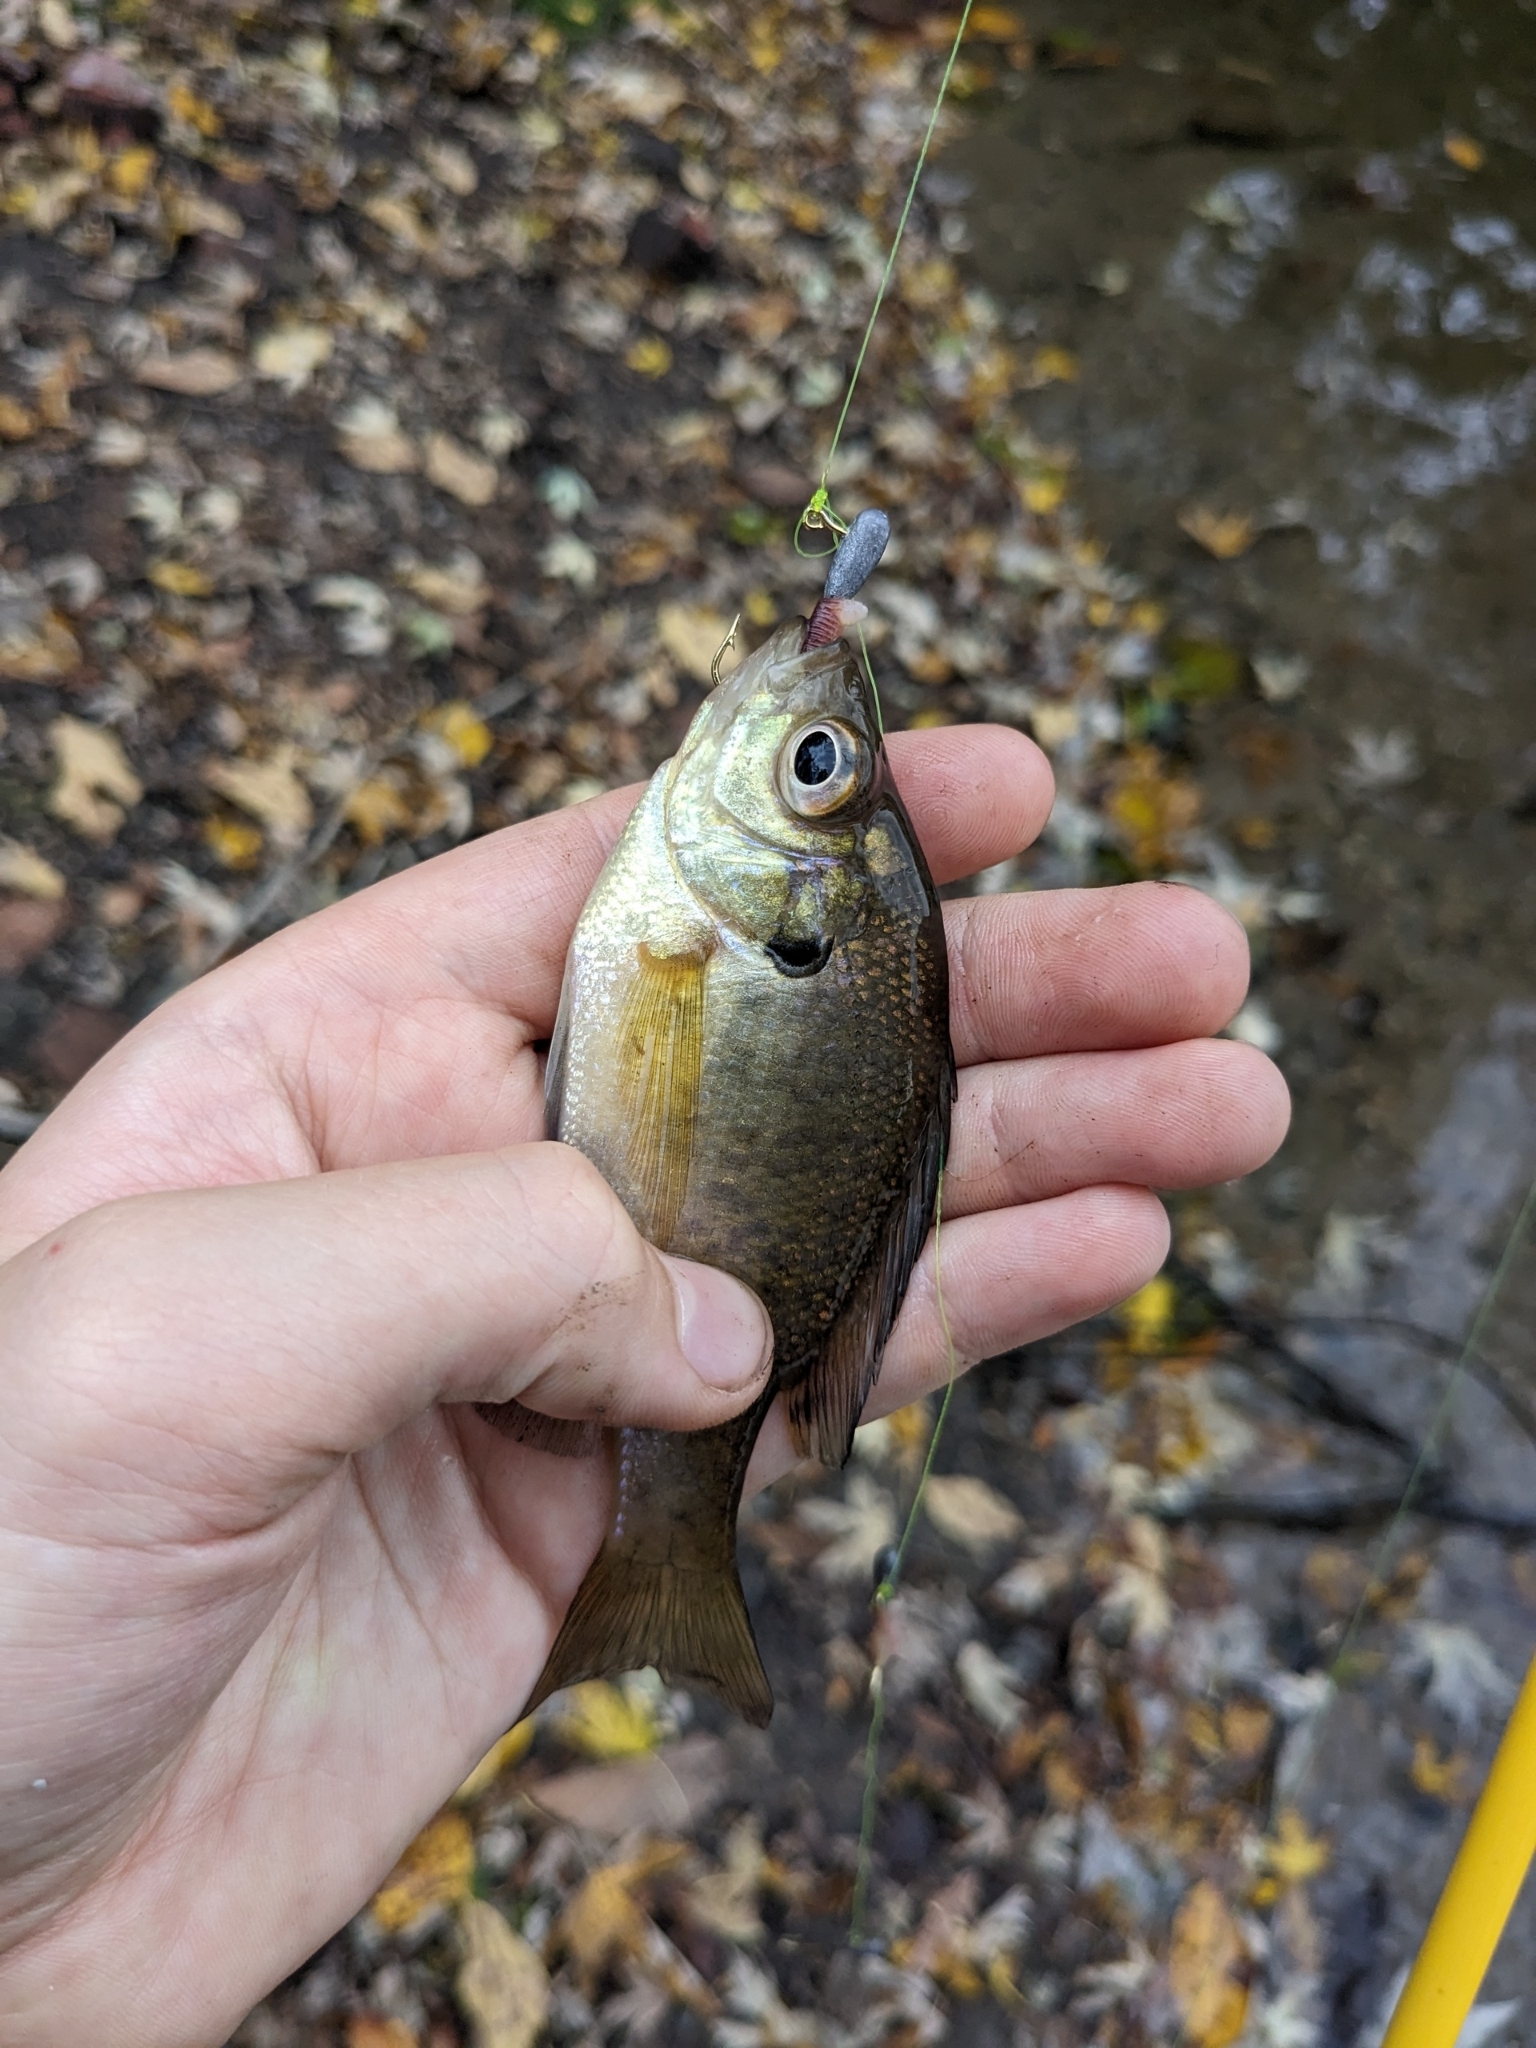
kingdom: Animalia
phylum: Chordata
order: Perciformes
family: Centrarchidae
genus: Lepomis
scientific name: Lepomis macrochirus
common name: Bluegill
